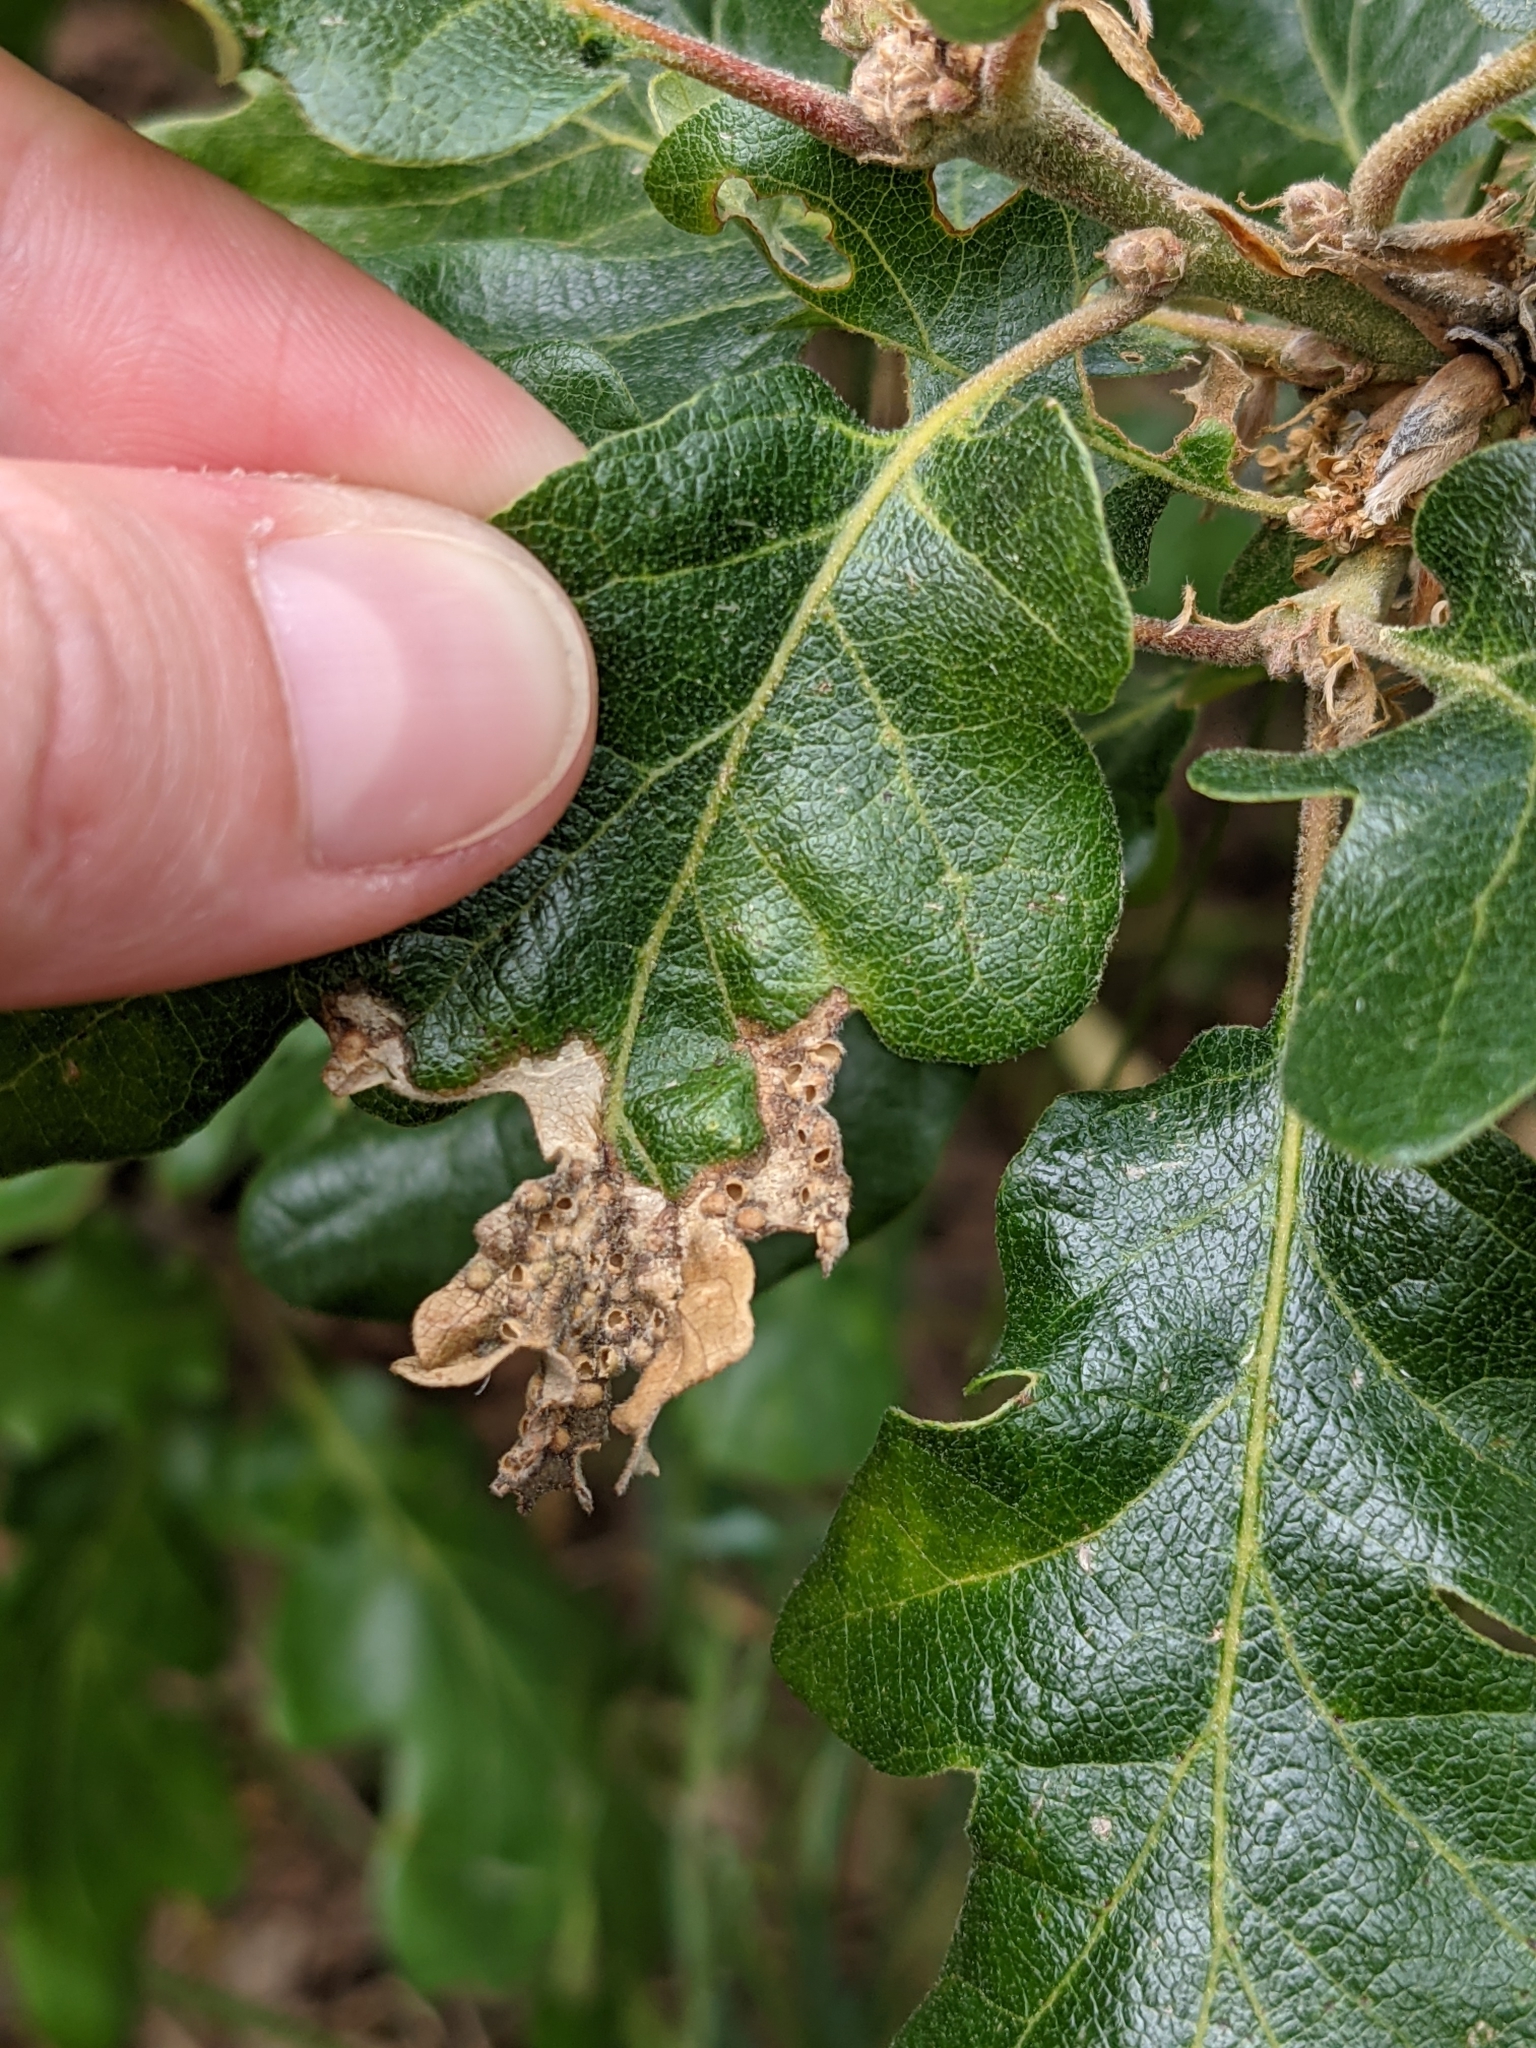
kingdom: Animalia
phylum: Arthropoda
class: Insecta
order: Hymenoptera
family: Cynipidae
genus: Neuroterus
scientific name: Neuroterus saltarius
